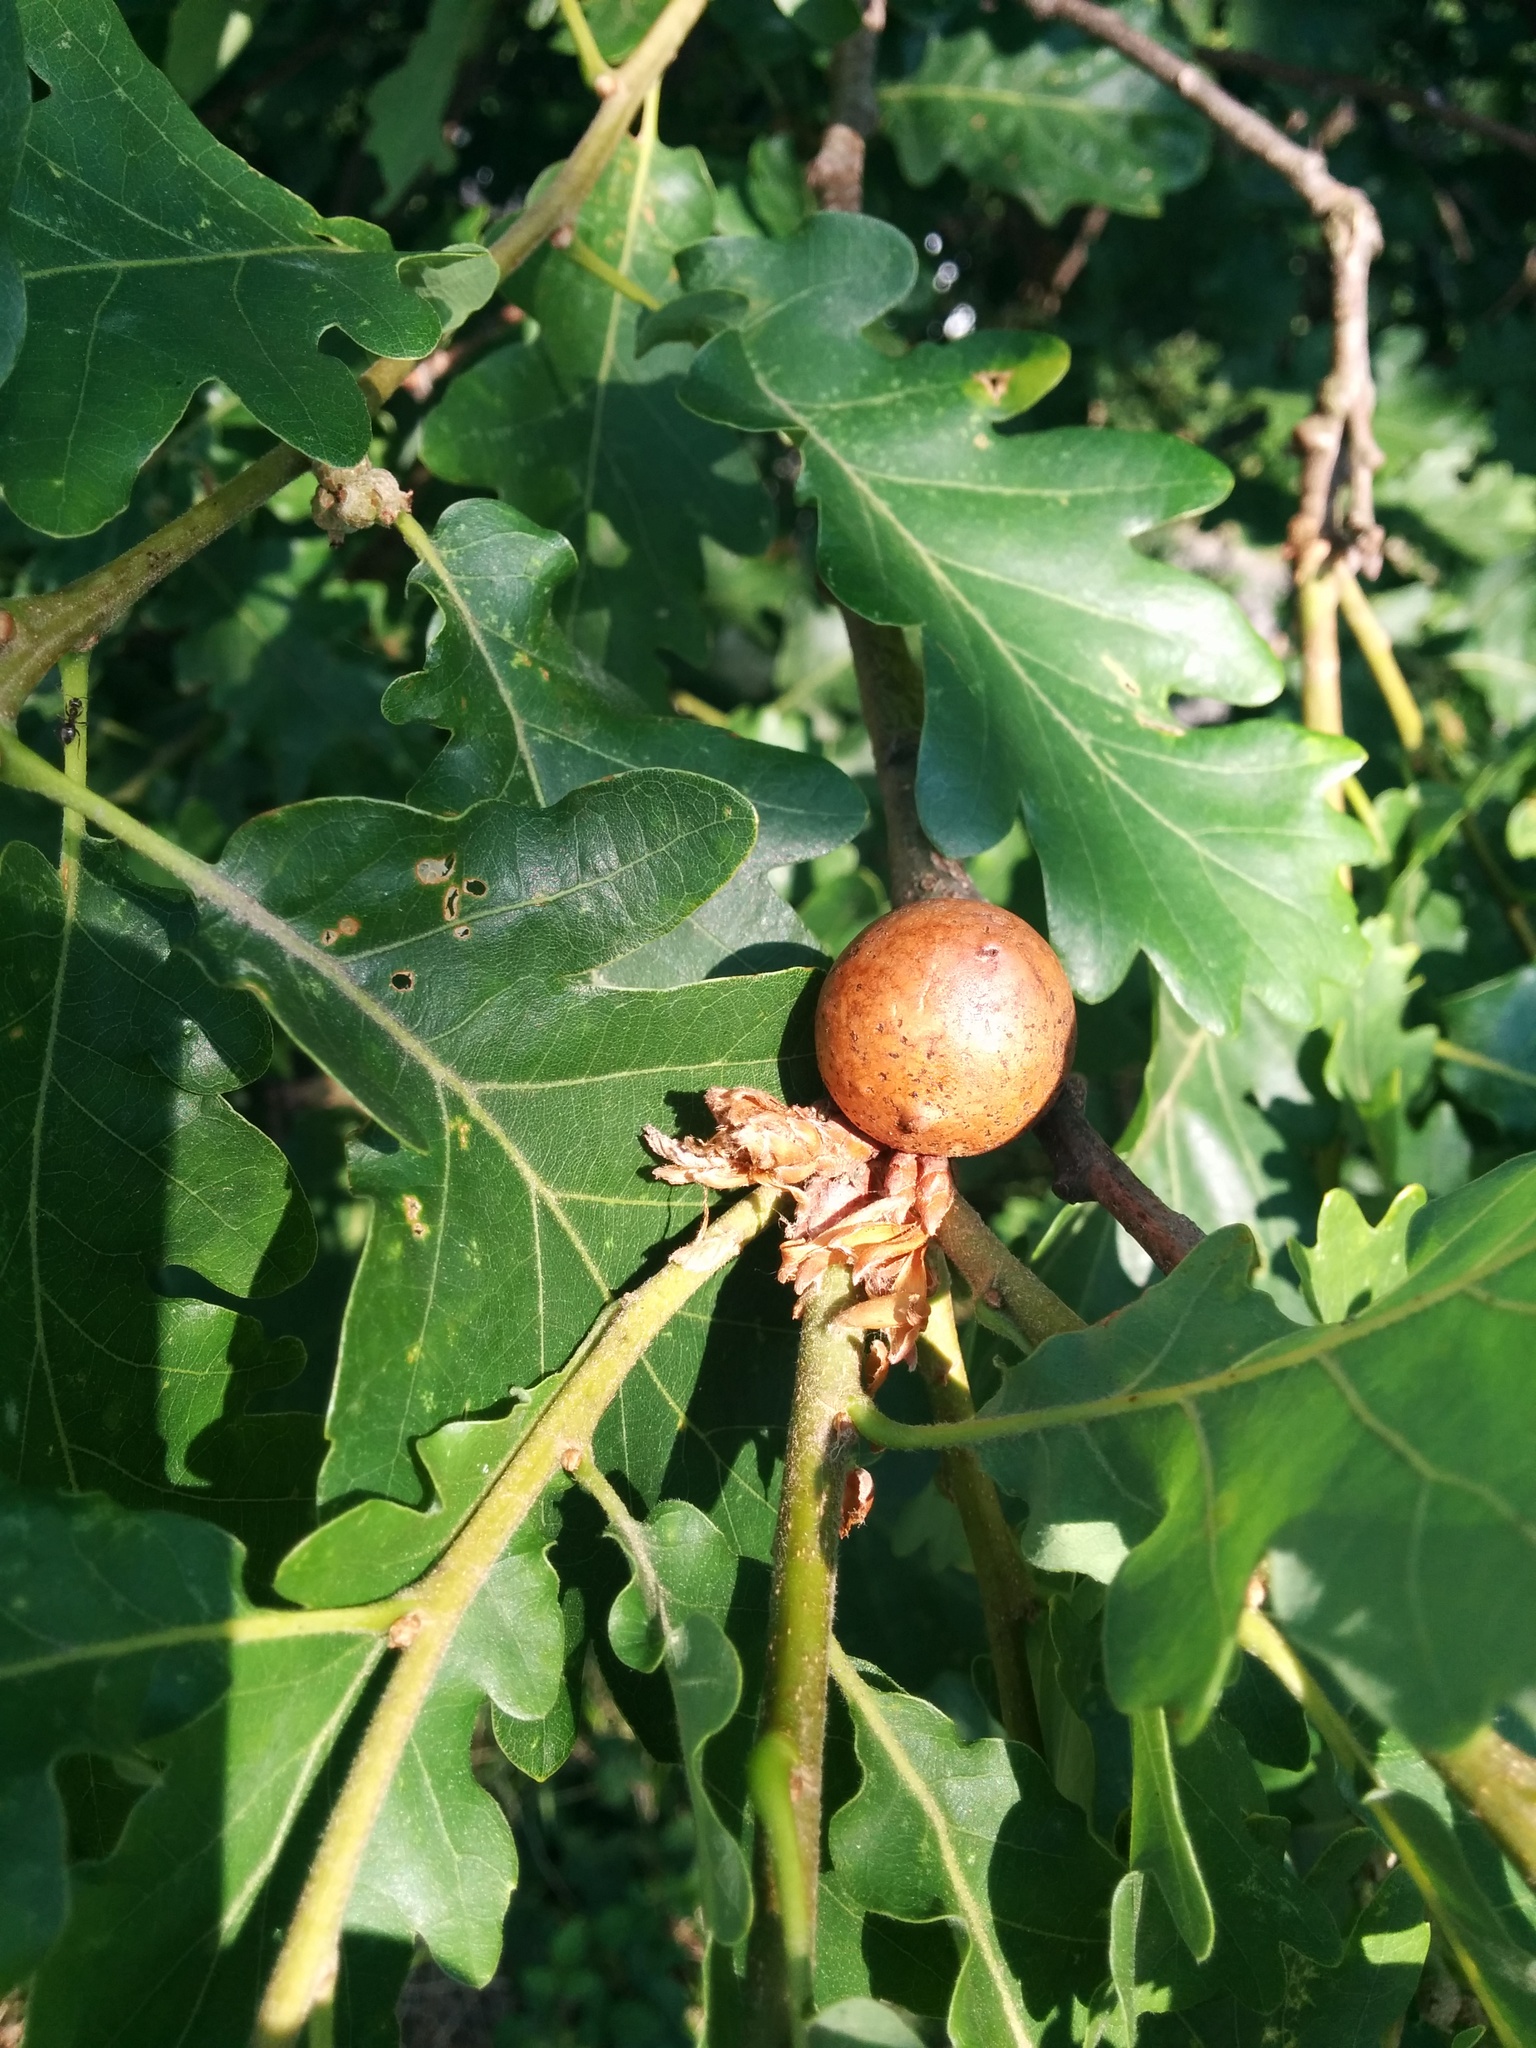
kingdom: Animalia
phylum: Arthropoda
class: Insecta
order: Hymenoptera
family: Cynipidae
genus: Andricus
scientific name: Andricus kollari
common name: Marble gall
